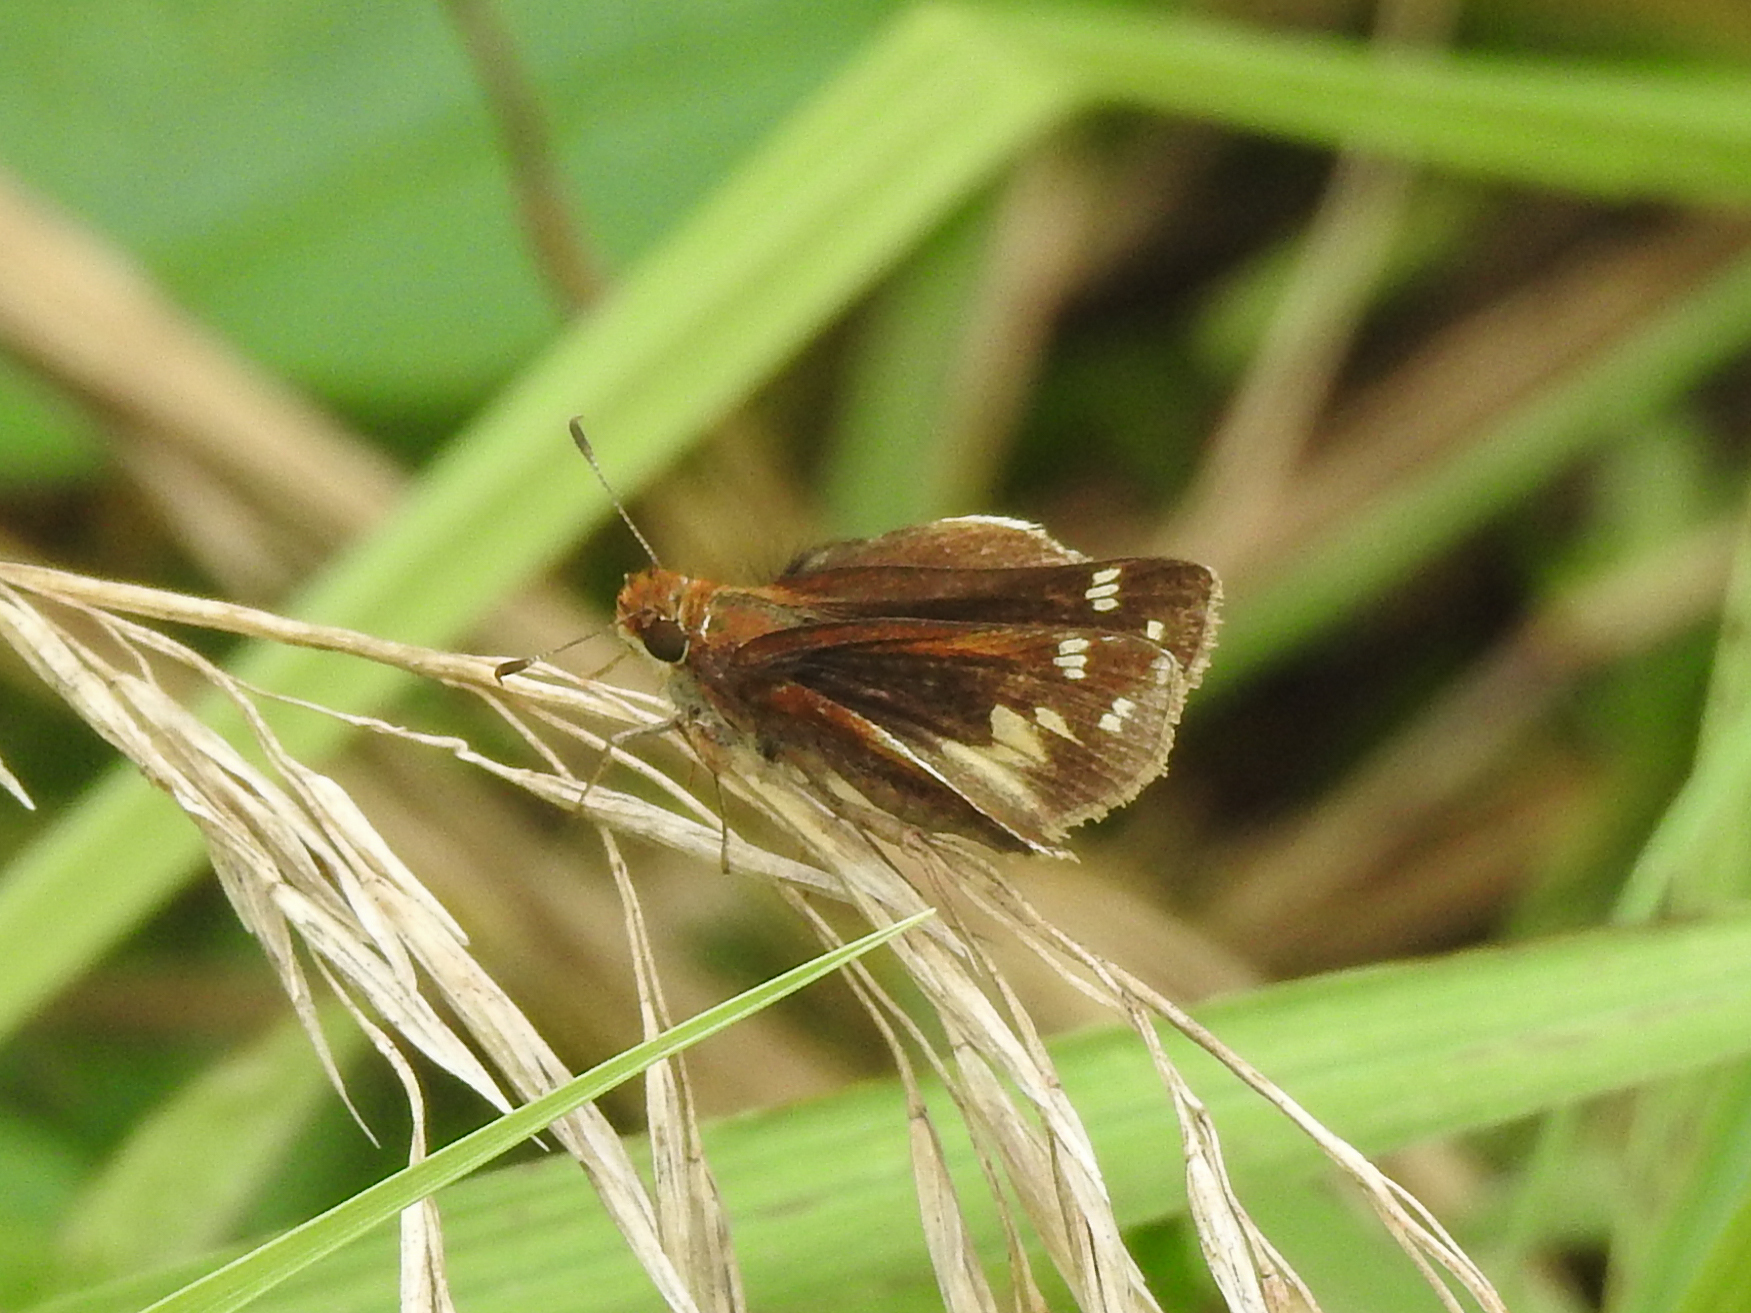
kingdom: Animalia
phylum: Arthropoda
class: Insecta
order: Lepidoptera
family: Hesperiidae
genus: Lon
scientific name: Lon zabulon
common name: Zabulon skipper
